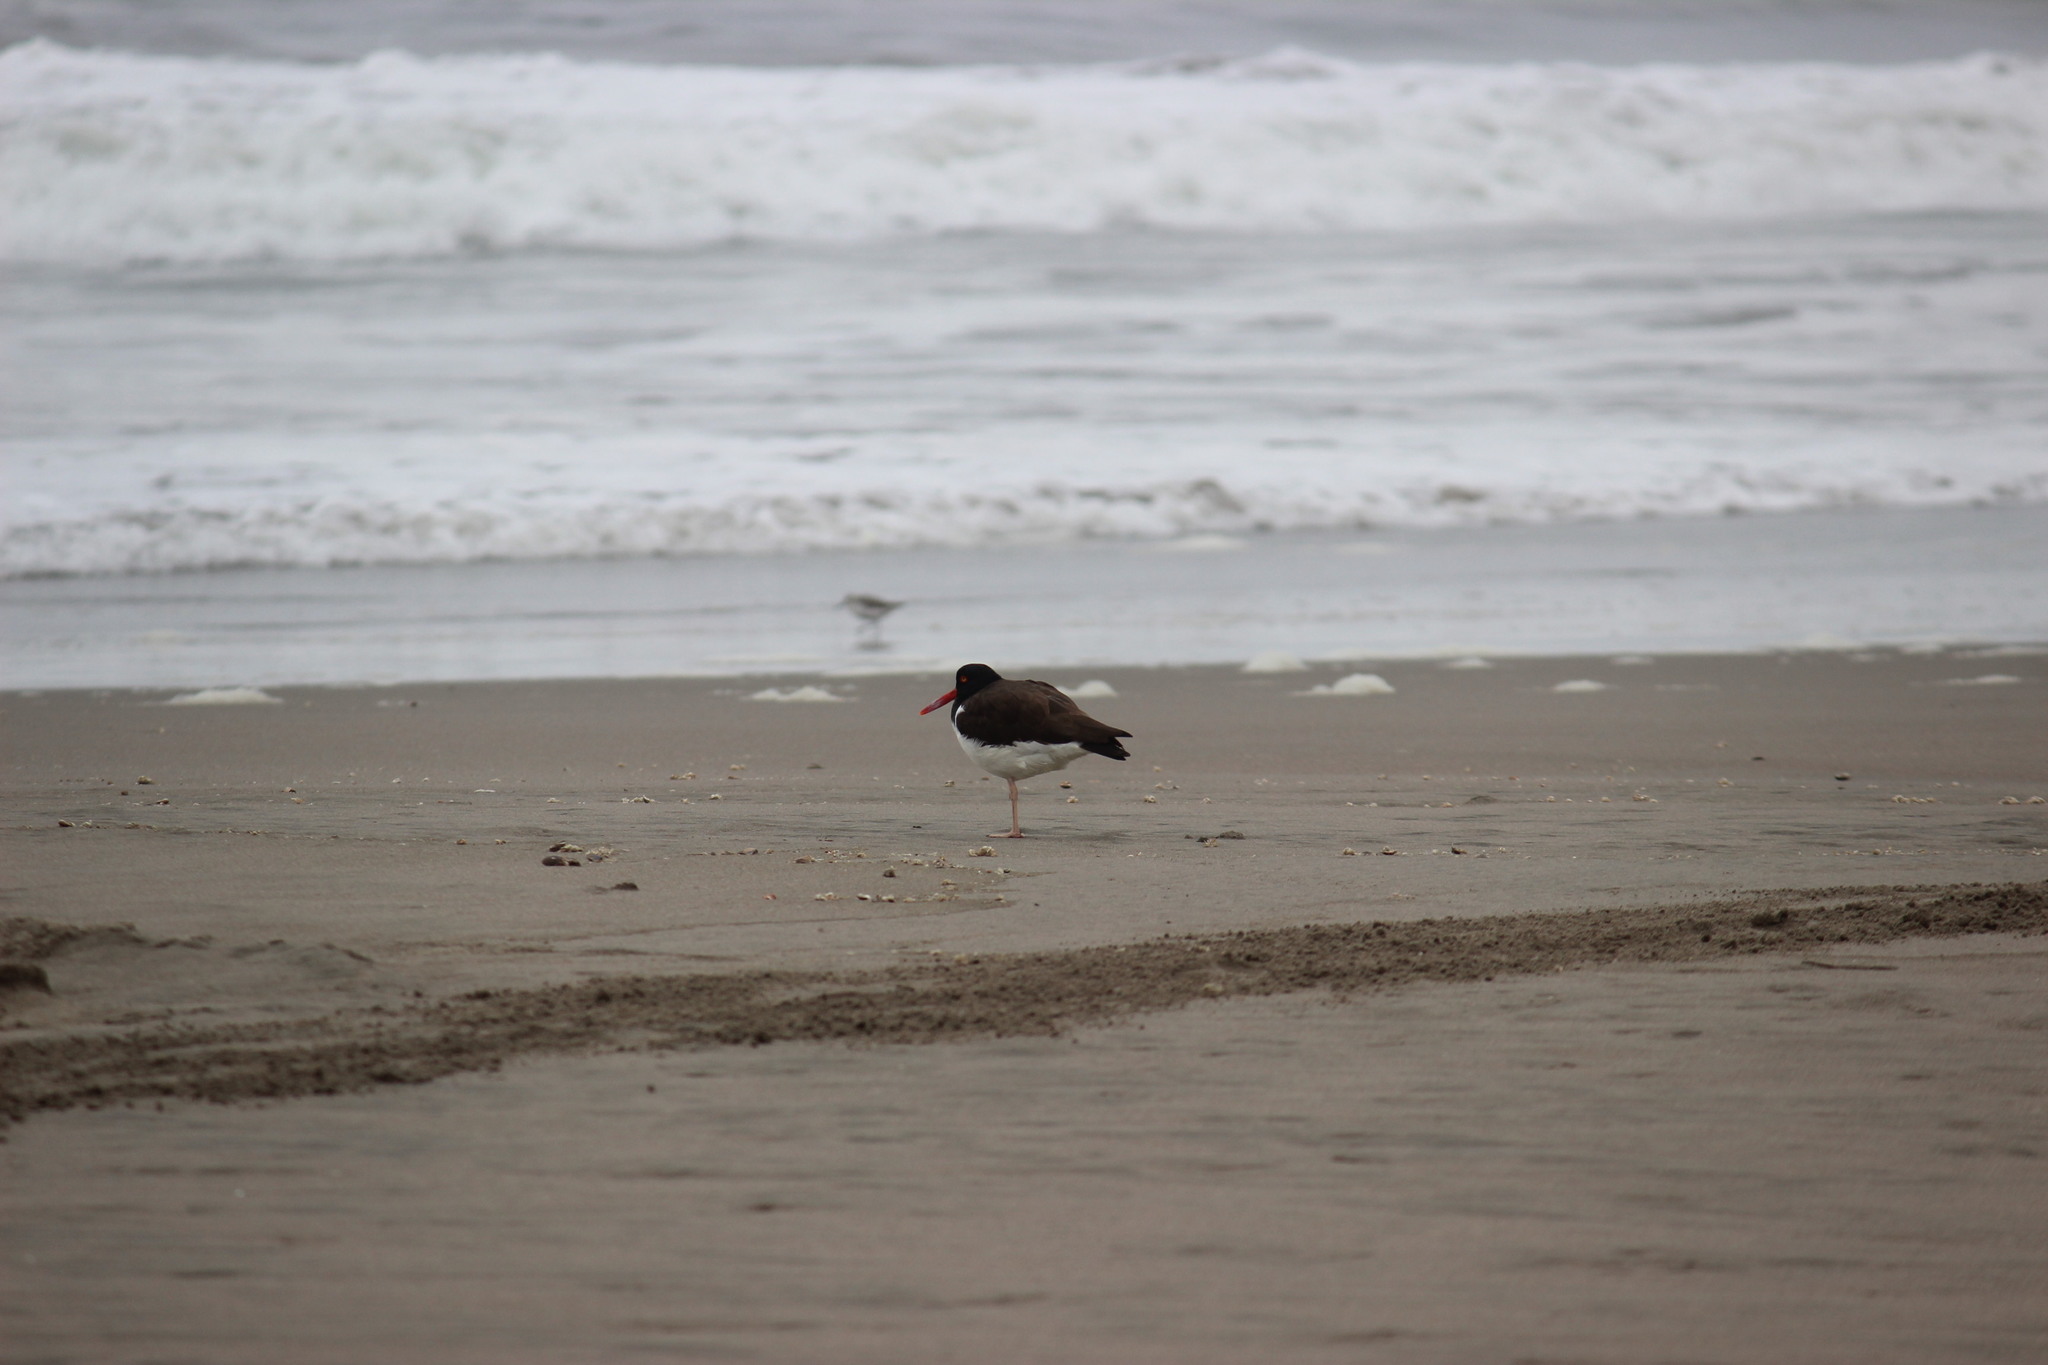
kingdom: Animalia
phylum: Chordata
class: Aves
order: Charadriiformes
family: Haematopodidae
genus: Haematopus
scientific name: Haematopus palliatus
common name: American oystercatcher
